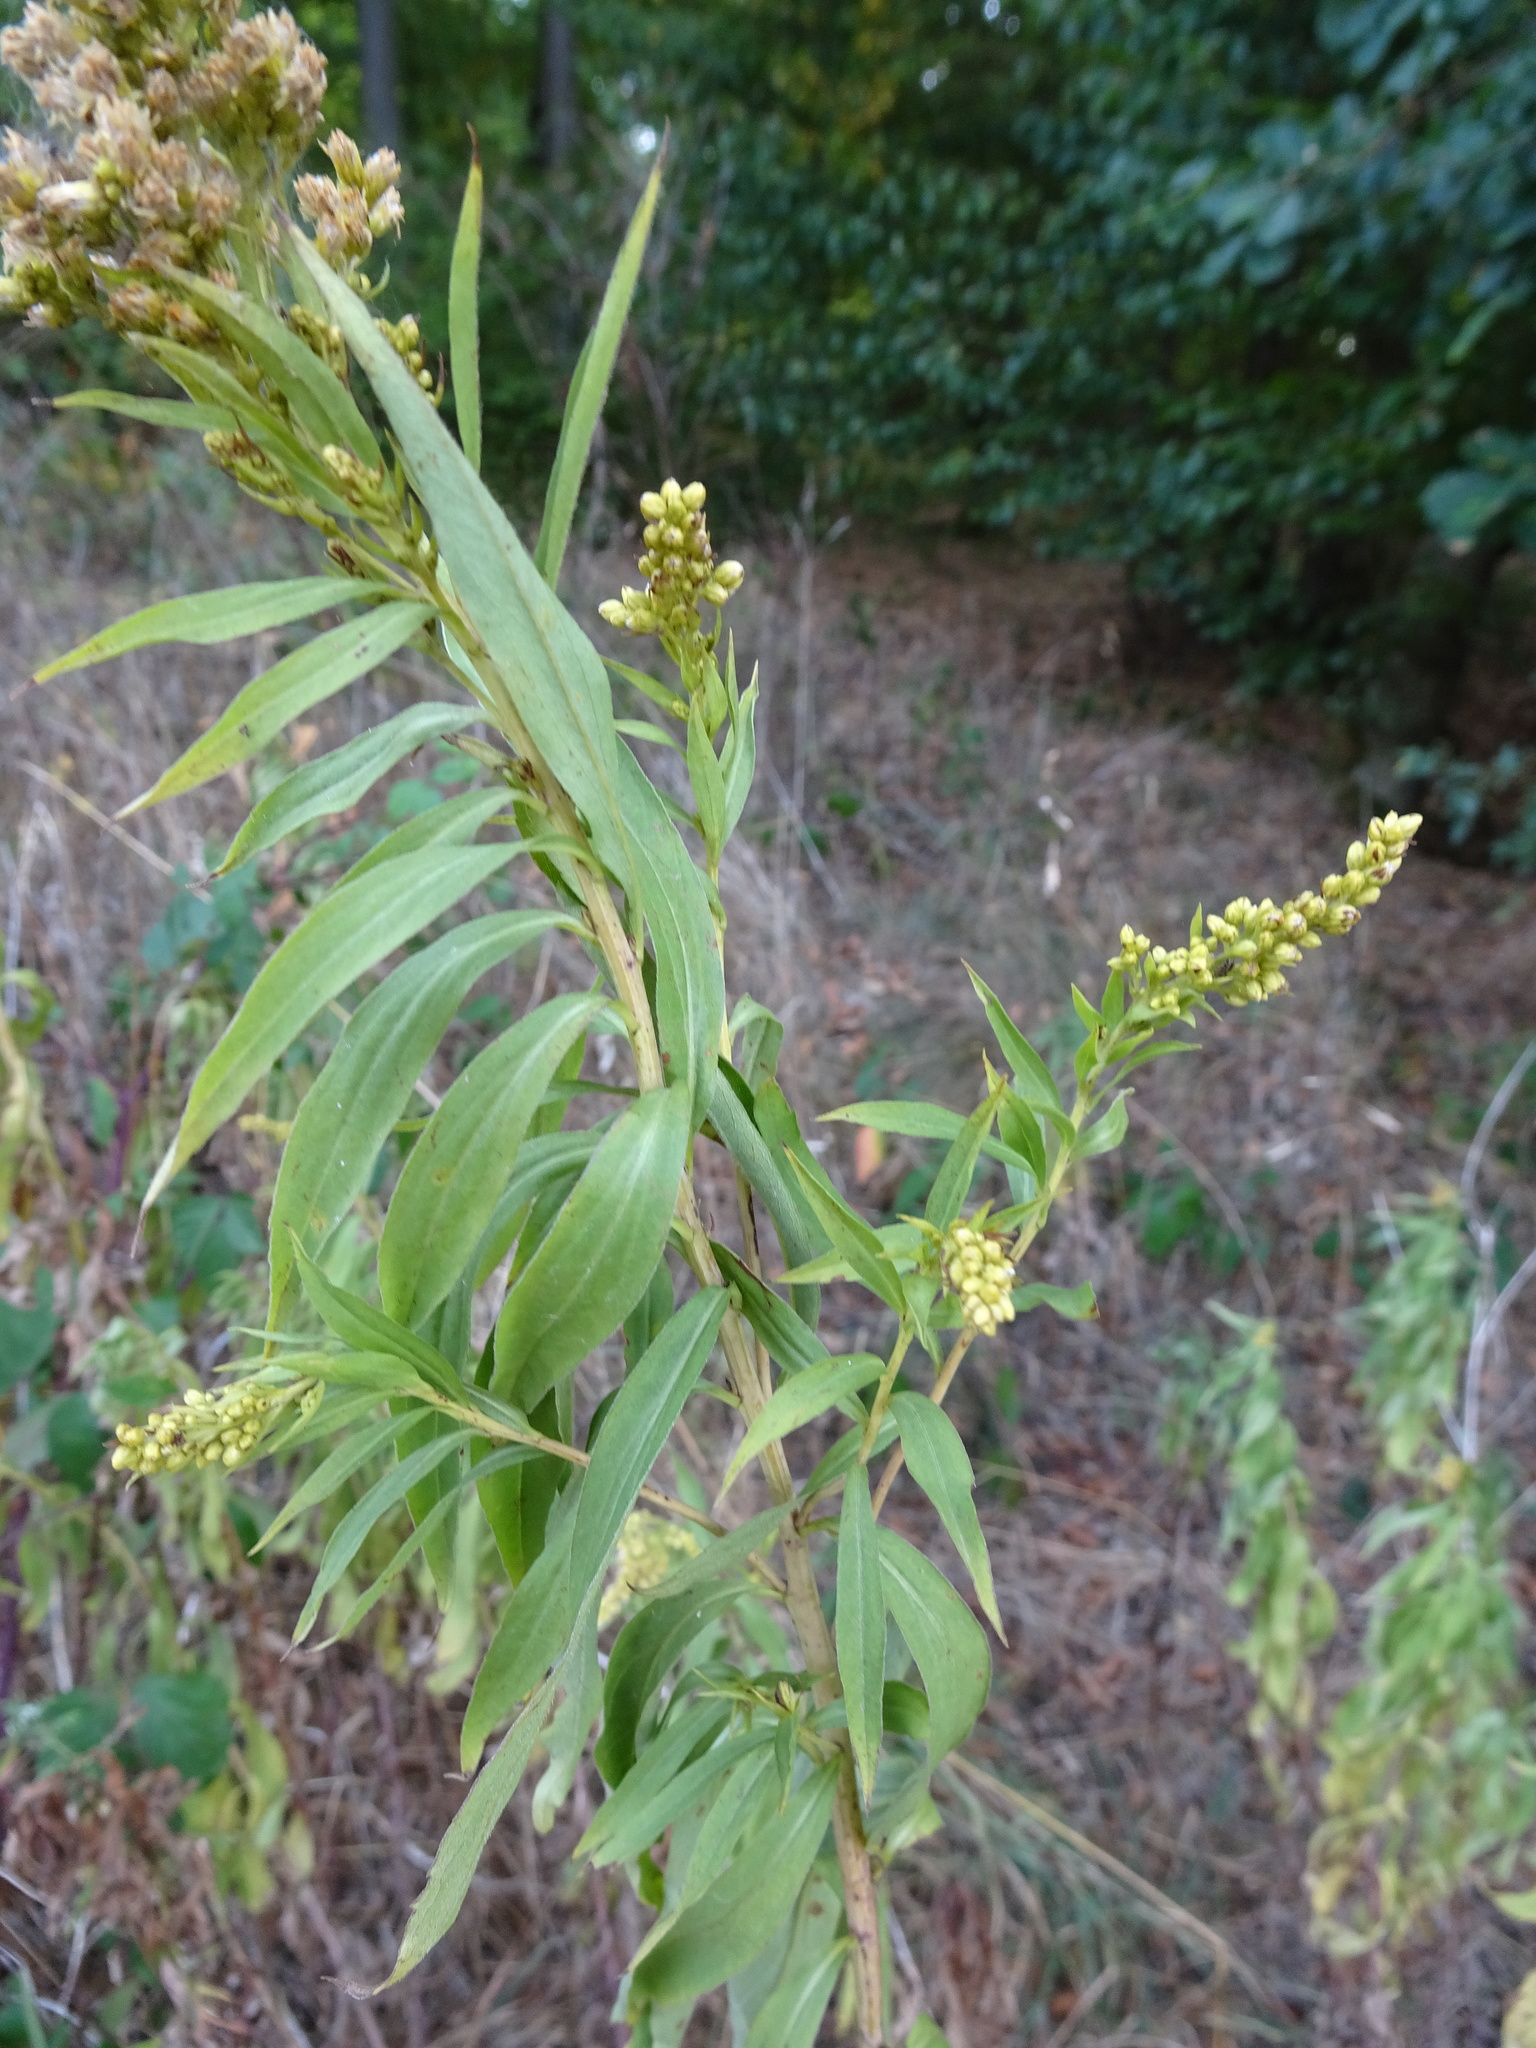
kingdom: Plantae
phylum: Tracheophyta
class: Magnoliopsida
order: Asterales
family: Asteraceae
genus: Solidago
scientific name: Solidago gigantea
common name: Giant goldenrod
